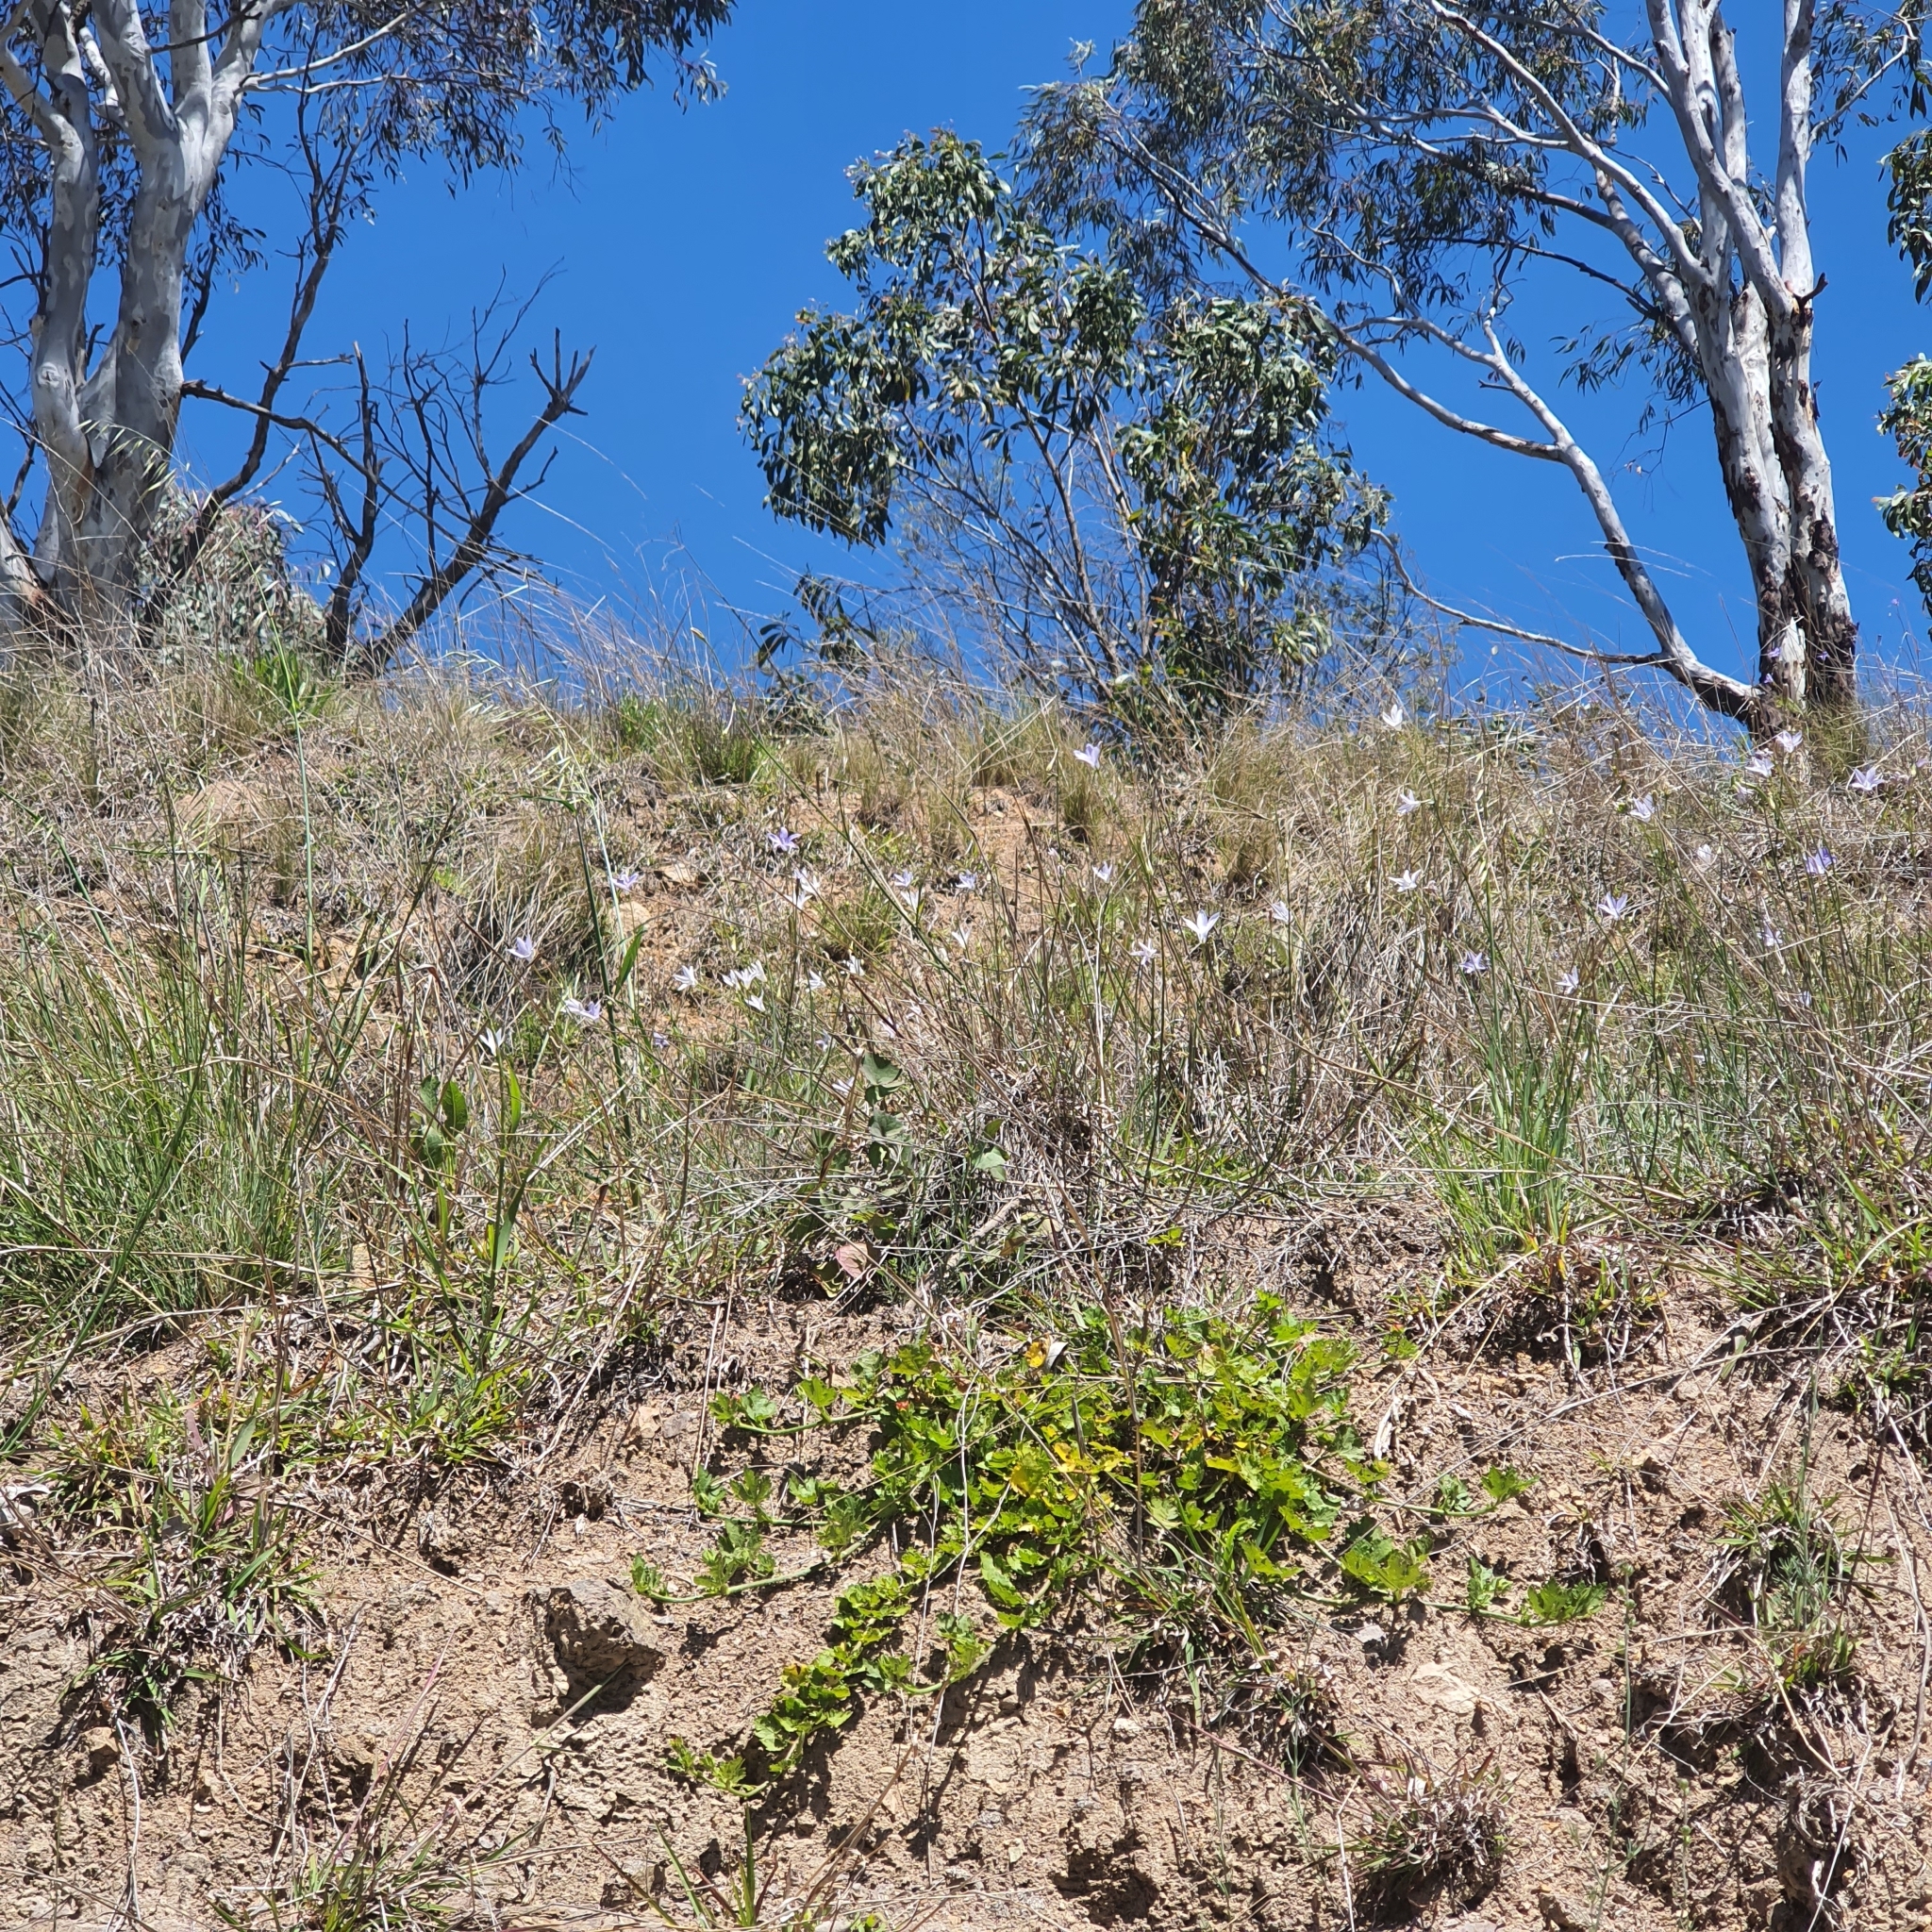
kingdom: Plantae
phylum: Tracheophyta
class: Magnoliopsida
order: Asterales
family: Campanulaceae
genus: Wahlenbergia
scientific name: Wahlenbergia
